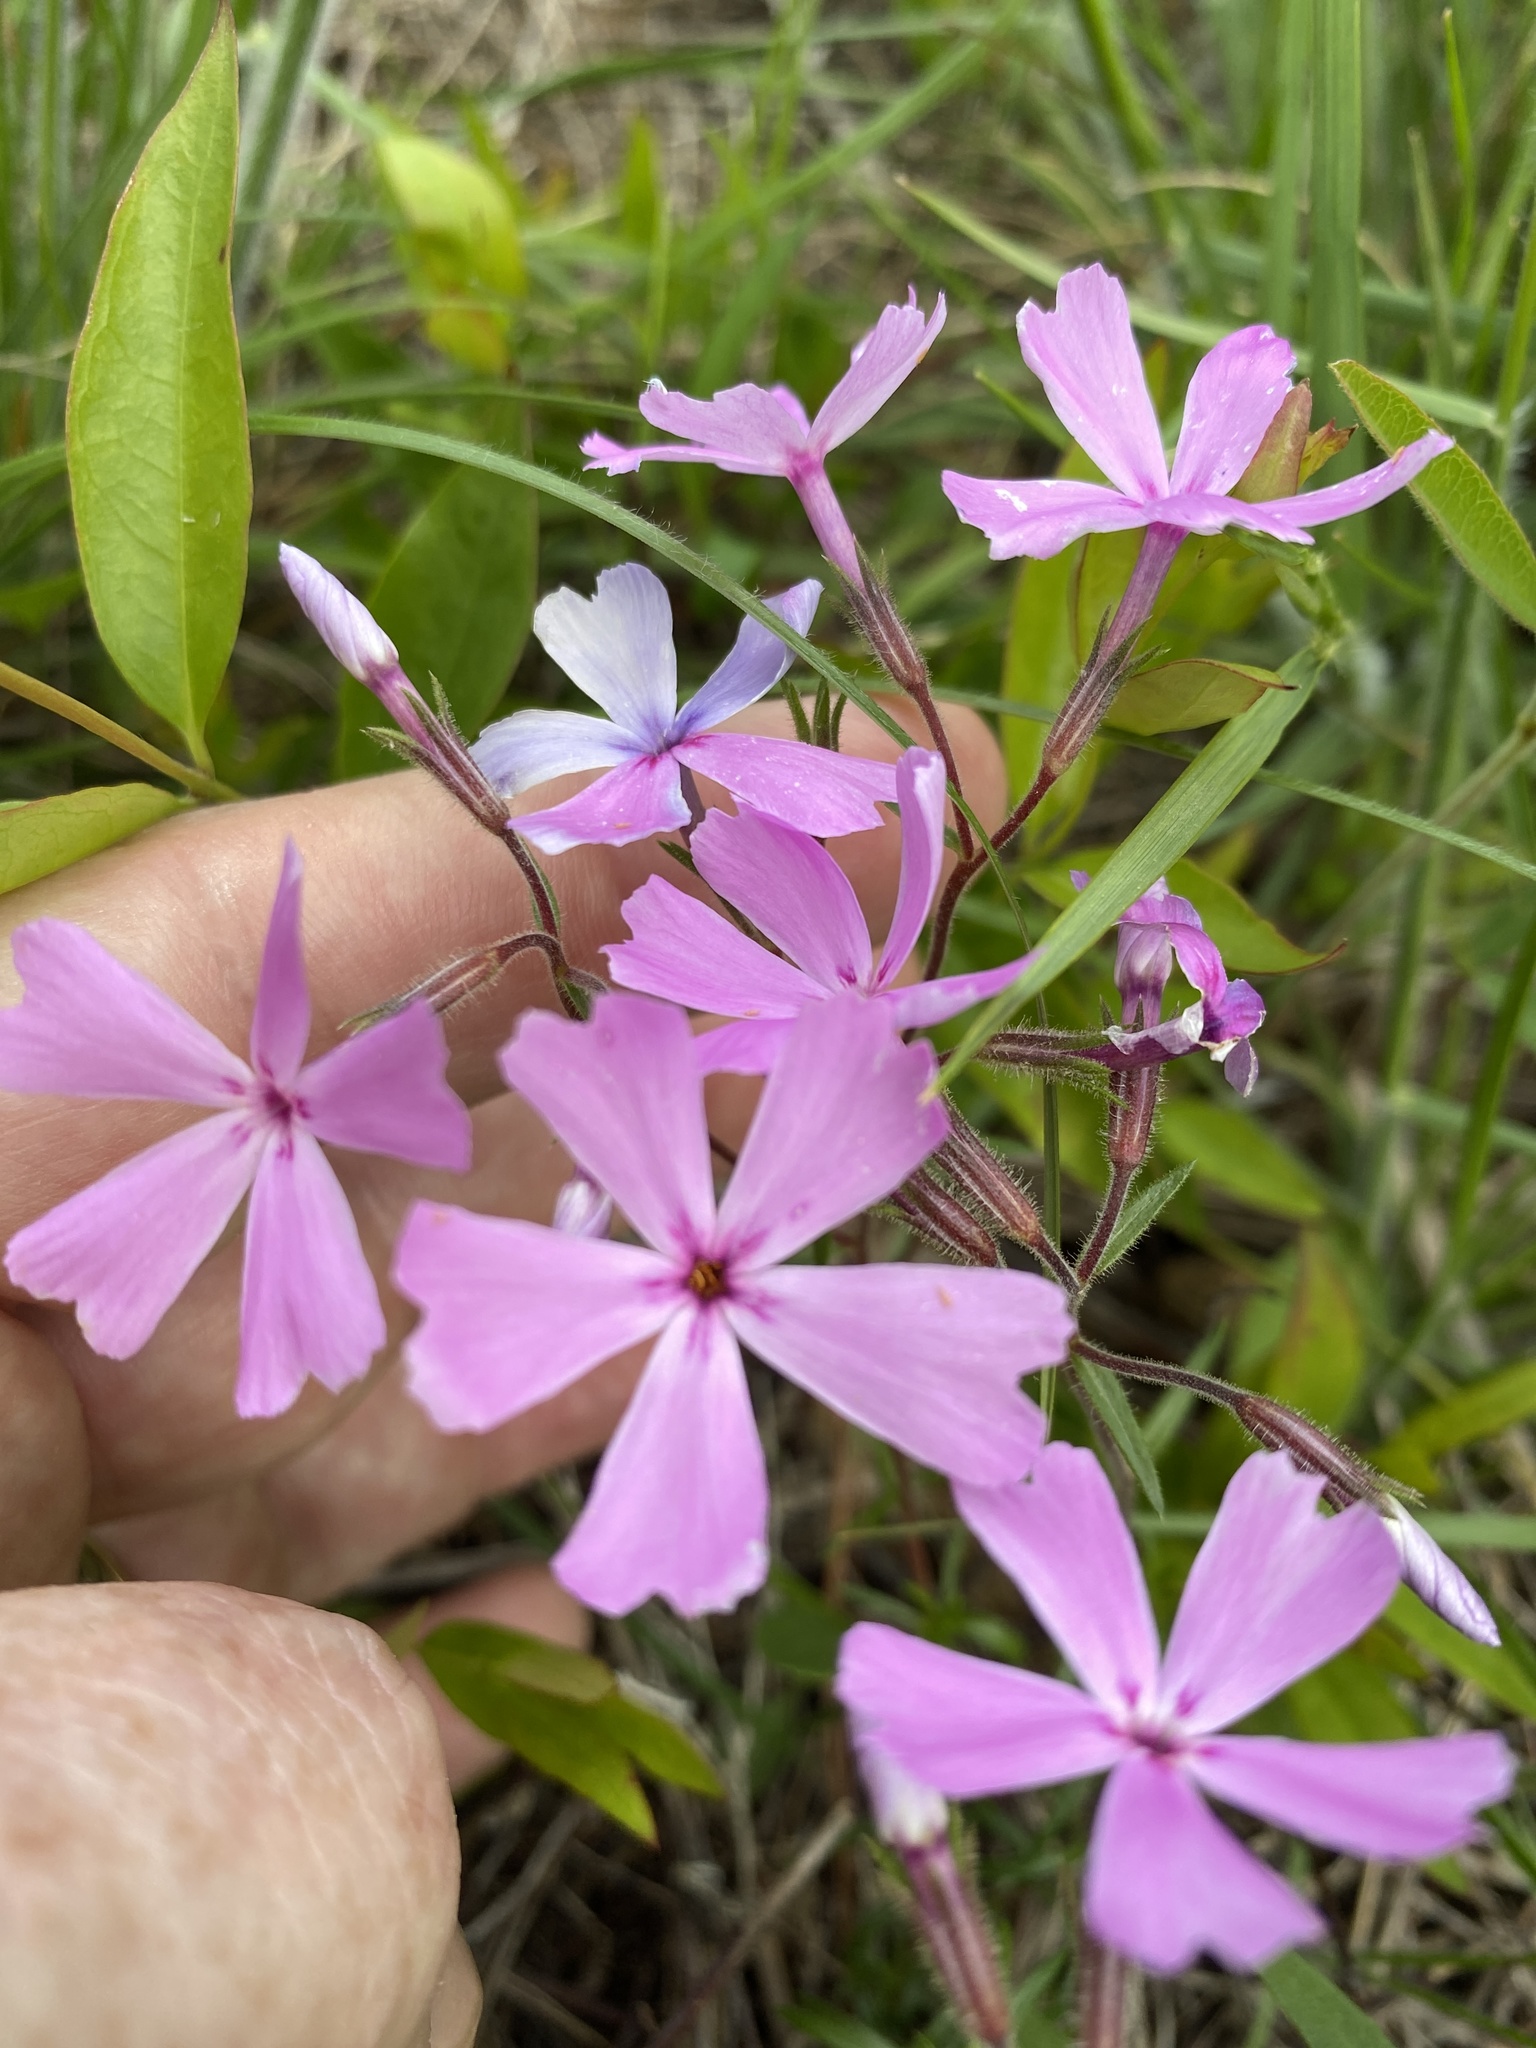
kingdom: Plantae
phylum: Tracheophyta
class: Magnoliopsida
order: Ericales
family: Polemoniaceae
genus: Phlox
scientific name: Phlox nivalis
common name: Trailing phlox
